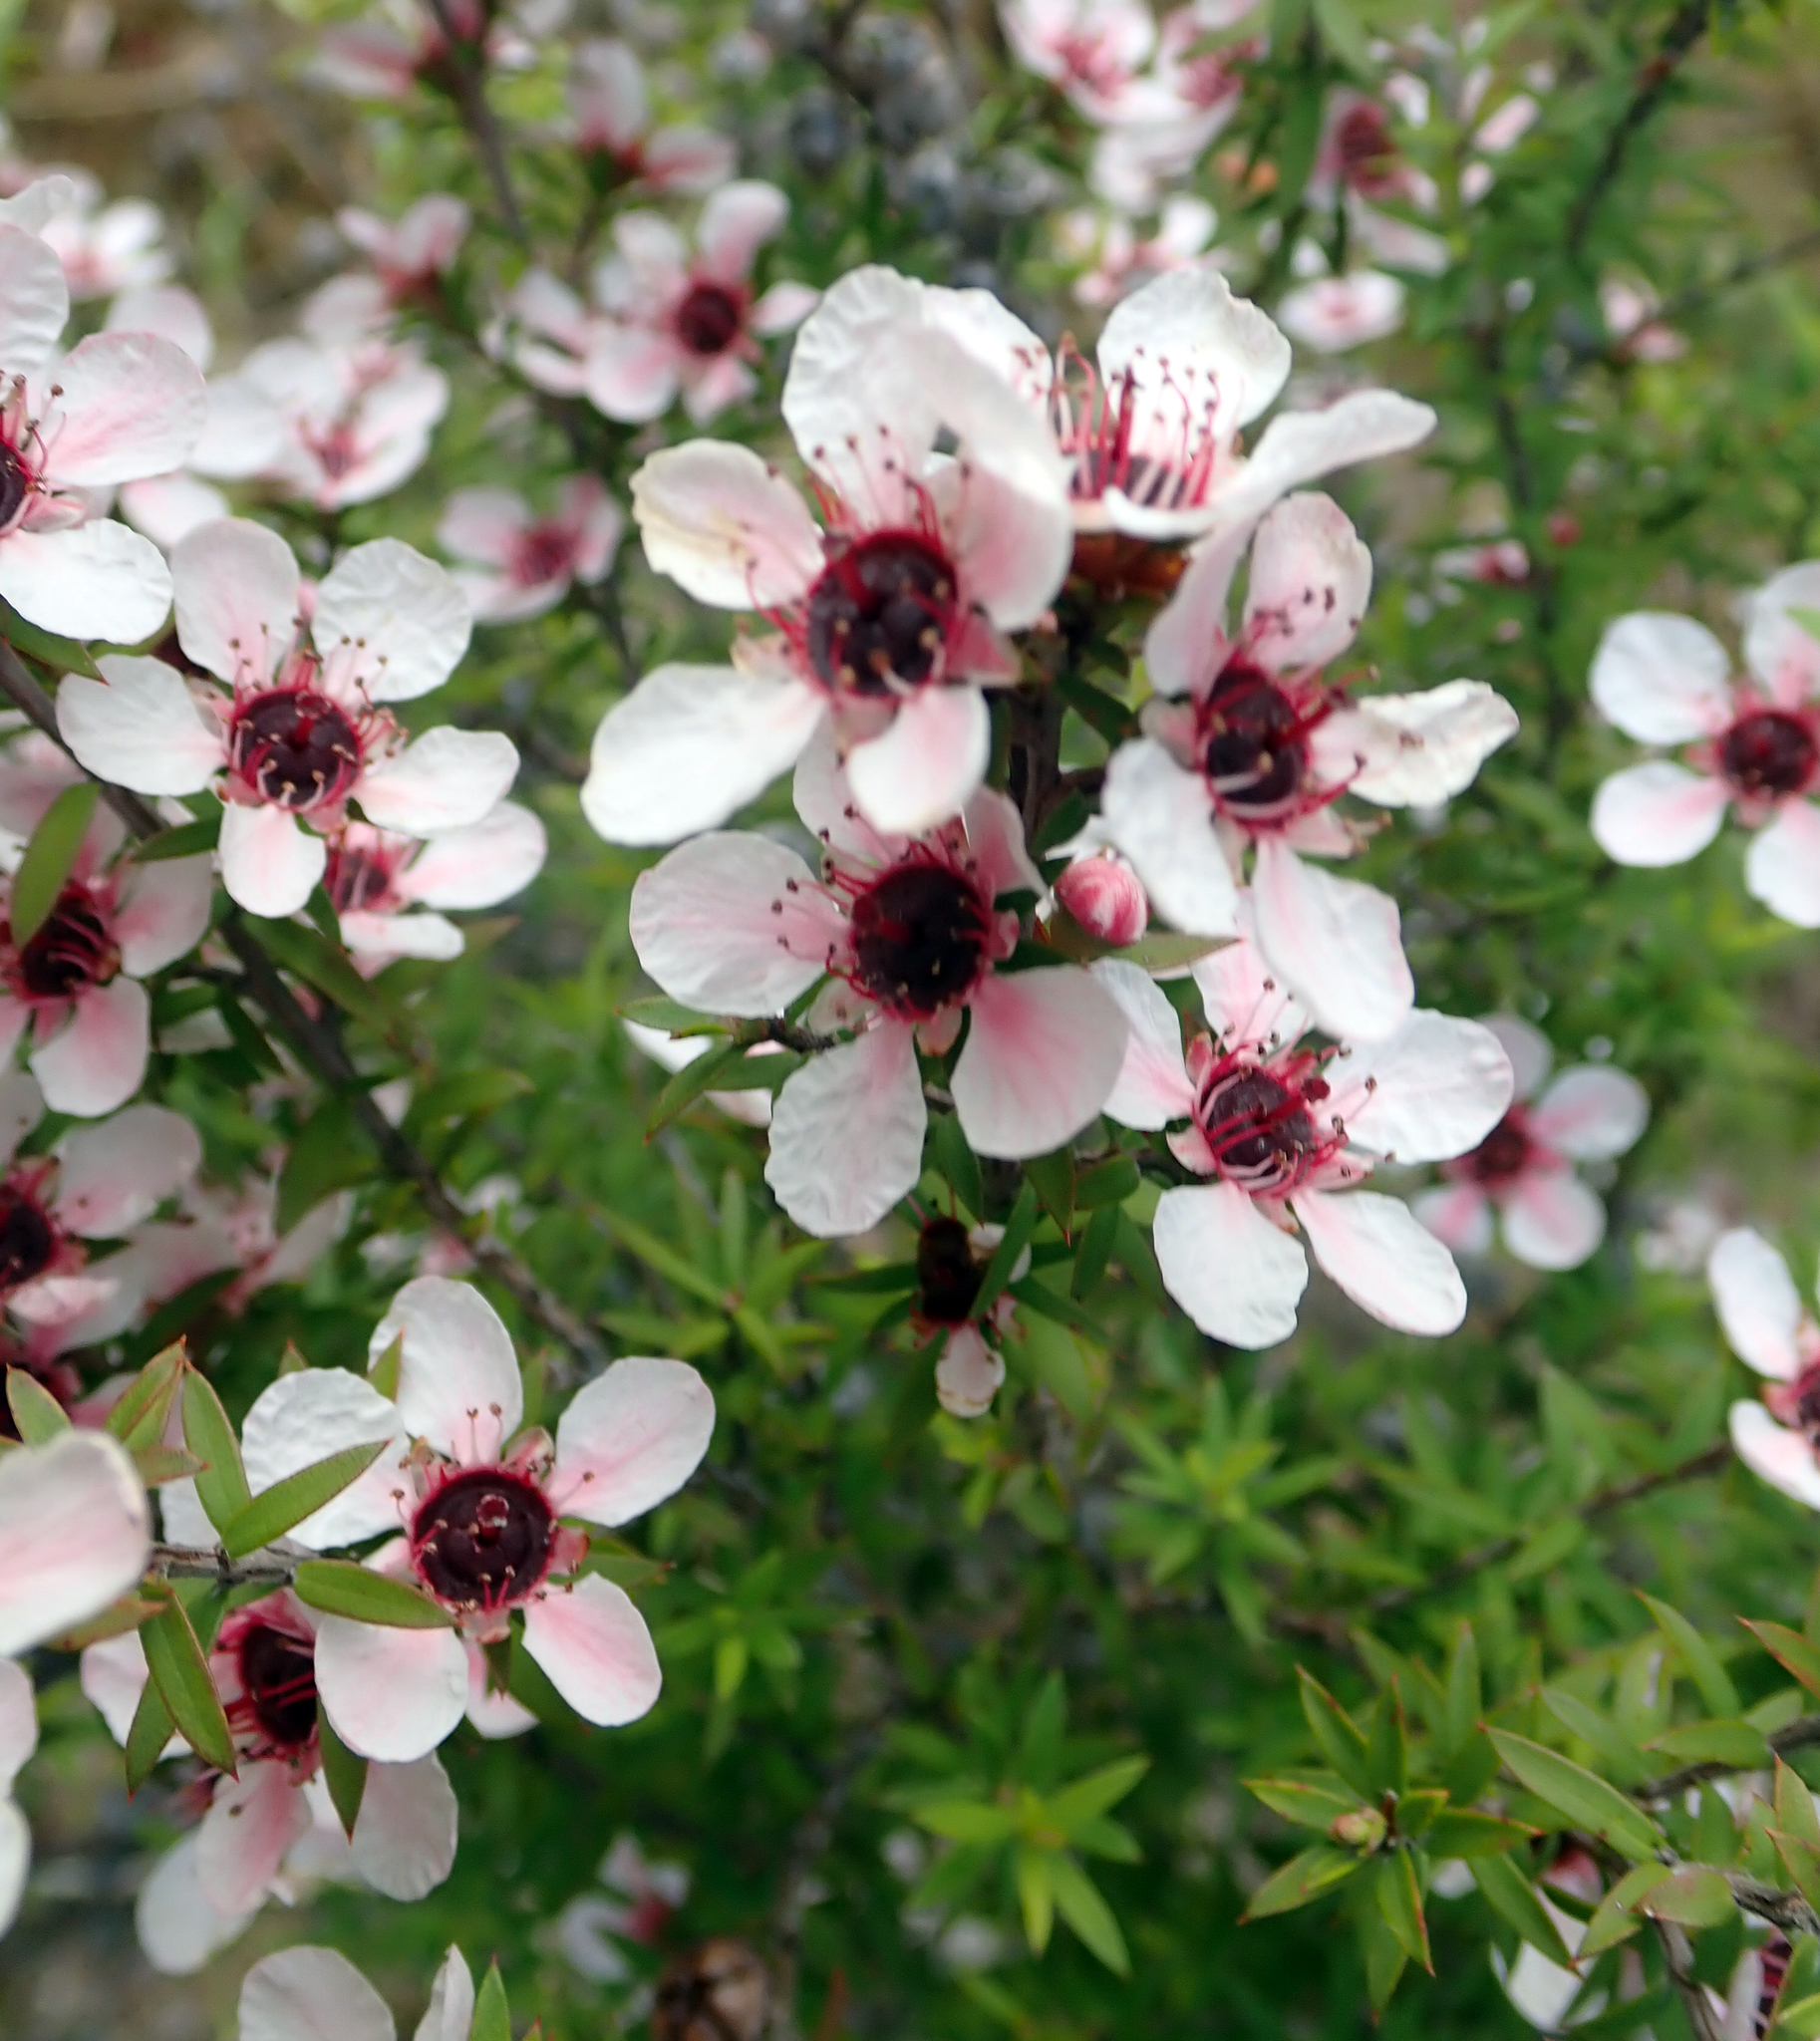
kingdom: Plantae
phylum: Tracheophyta
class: Magnoliopsida
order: Myrtales
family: Myrtaceae
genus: Leptospermum
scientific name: Leptospermum scoparium
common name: Broom tea-tree
